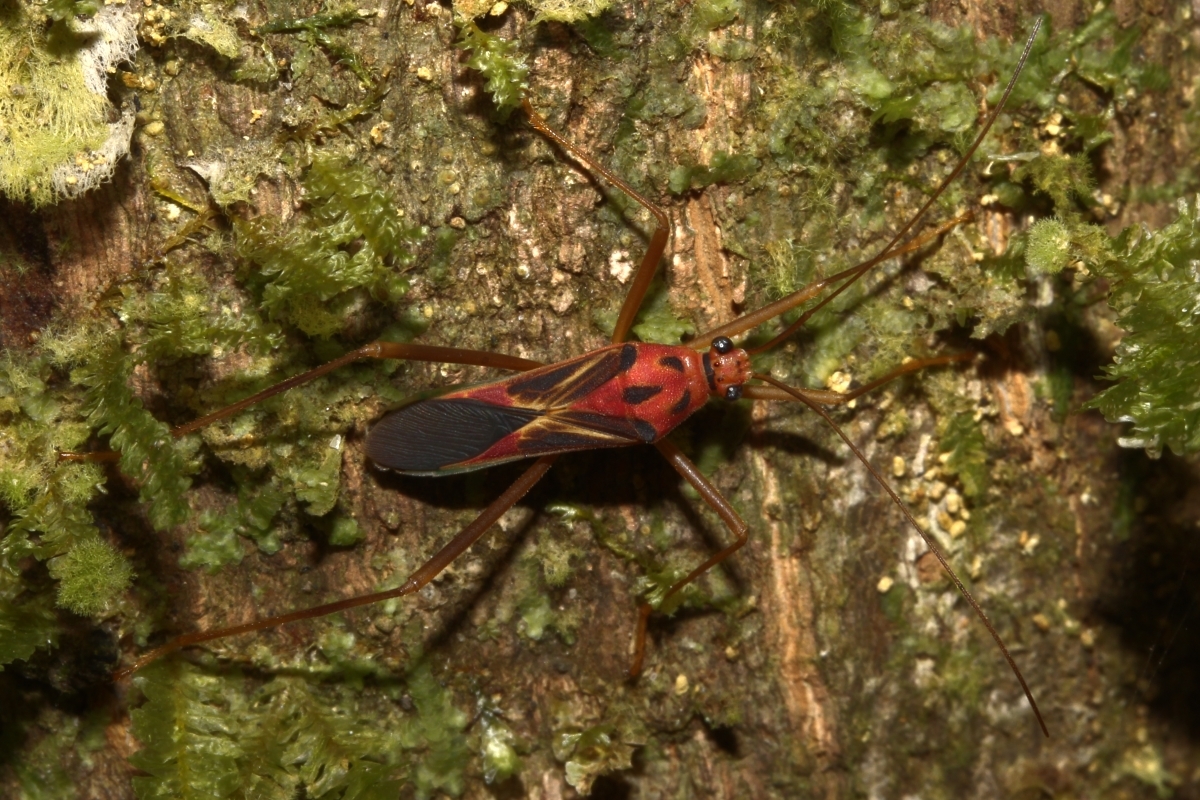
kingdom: Animalia
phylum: Arthropoda
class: Insecta
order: Hemiptera
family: Coreidae
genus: Stenoscelidea
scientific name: Stenoscelidea rubra
